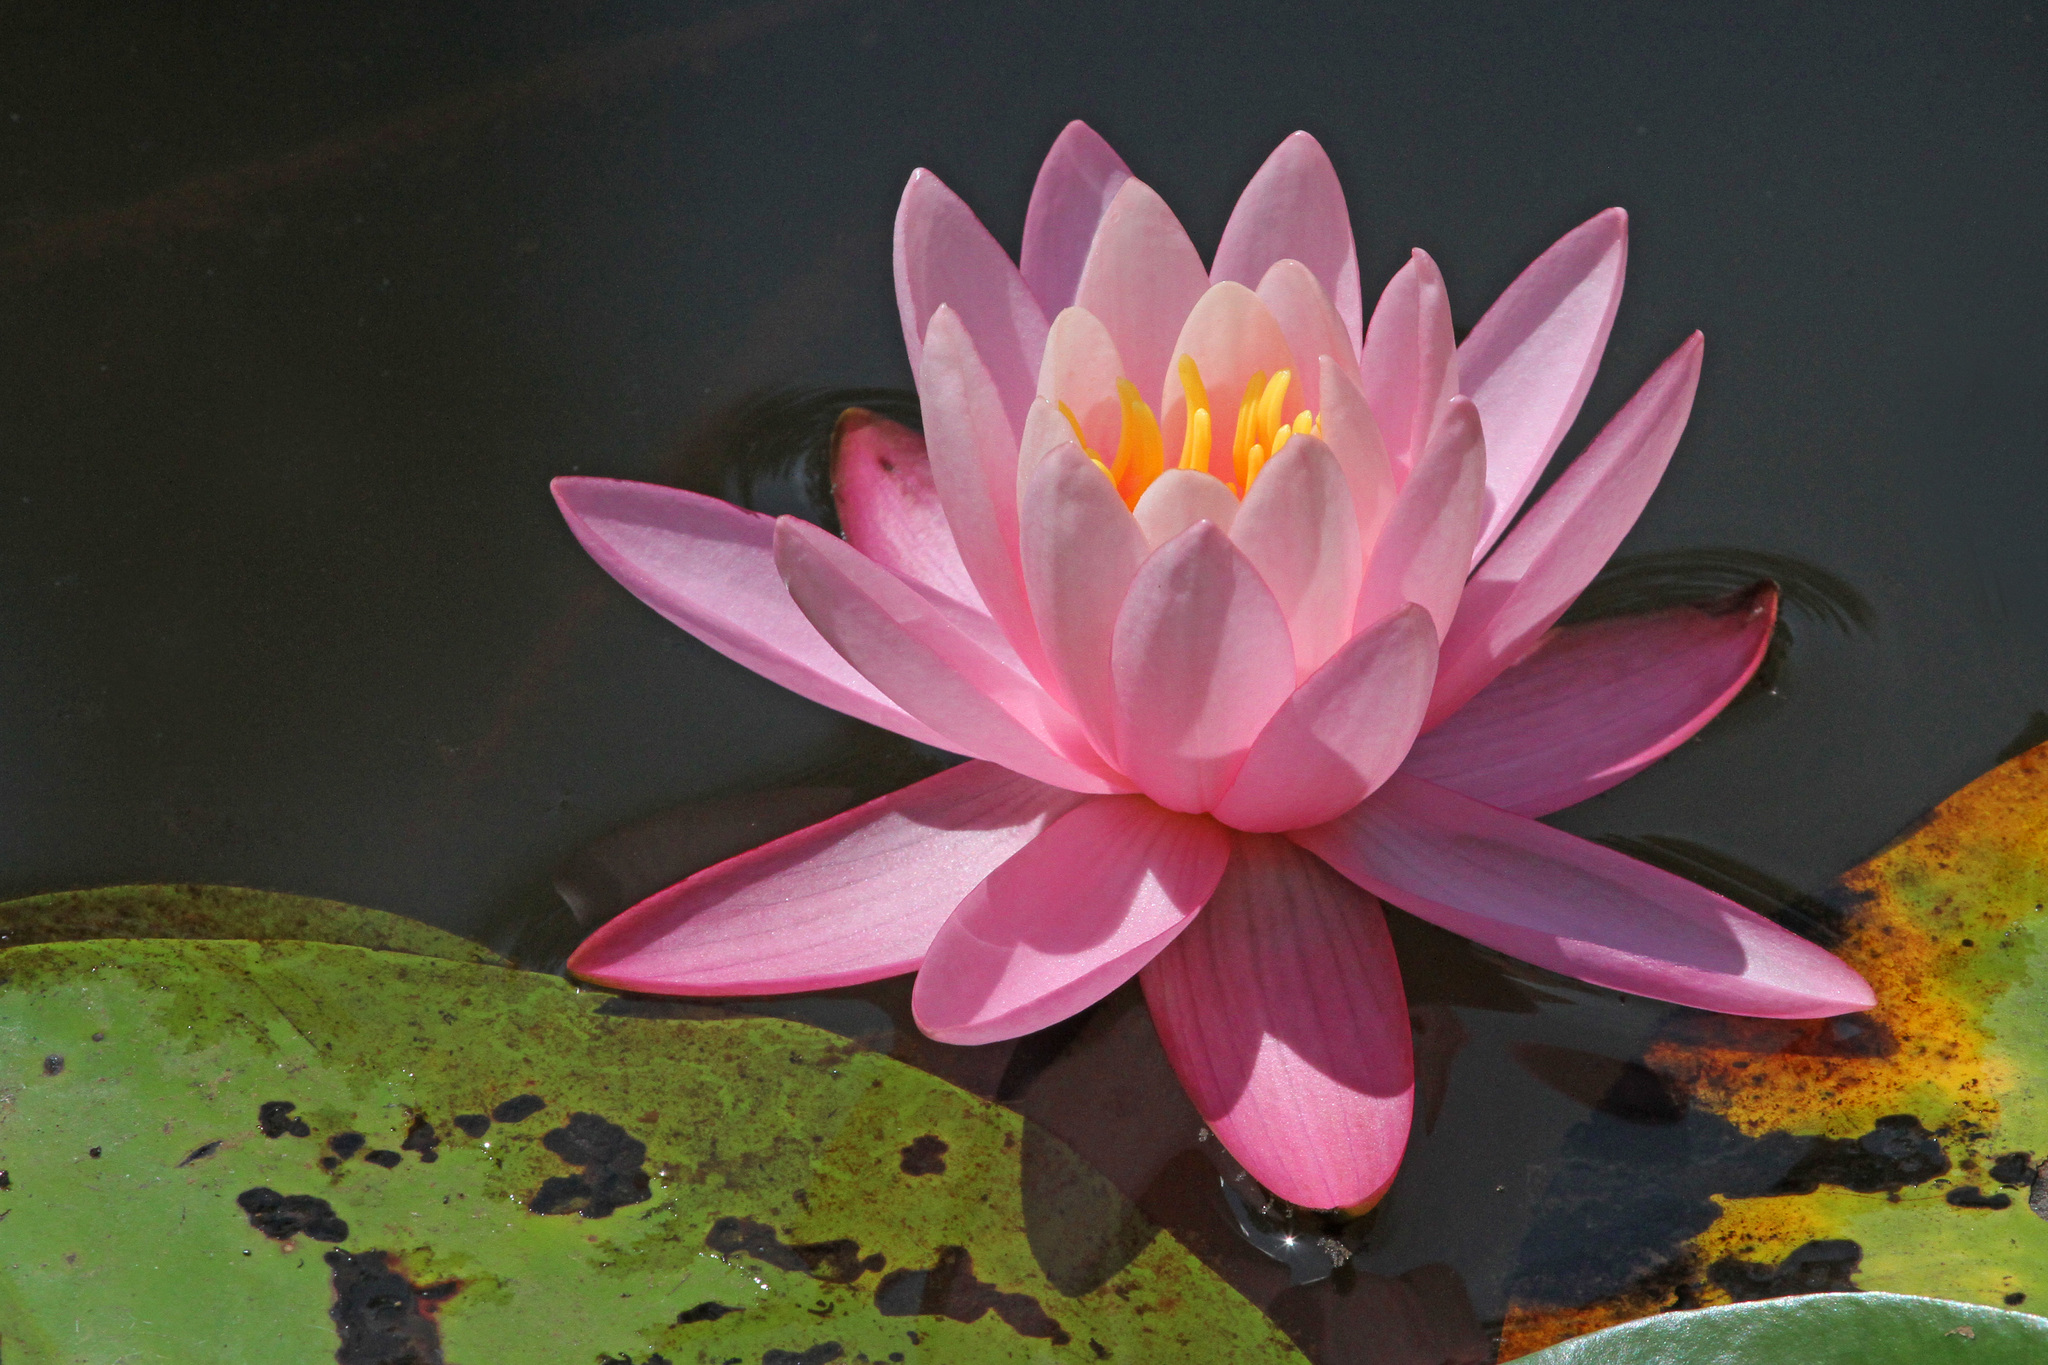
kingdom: Plantae
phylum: Tracheophyta
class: Magnoliopsida
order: Nymphaeales
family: Nymphaeaceae
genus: Nymphaea
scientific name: Nymphaea odorata
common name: Fragrant water-lily
